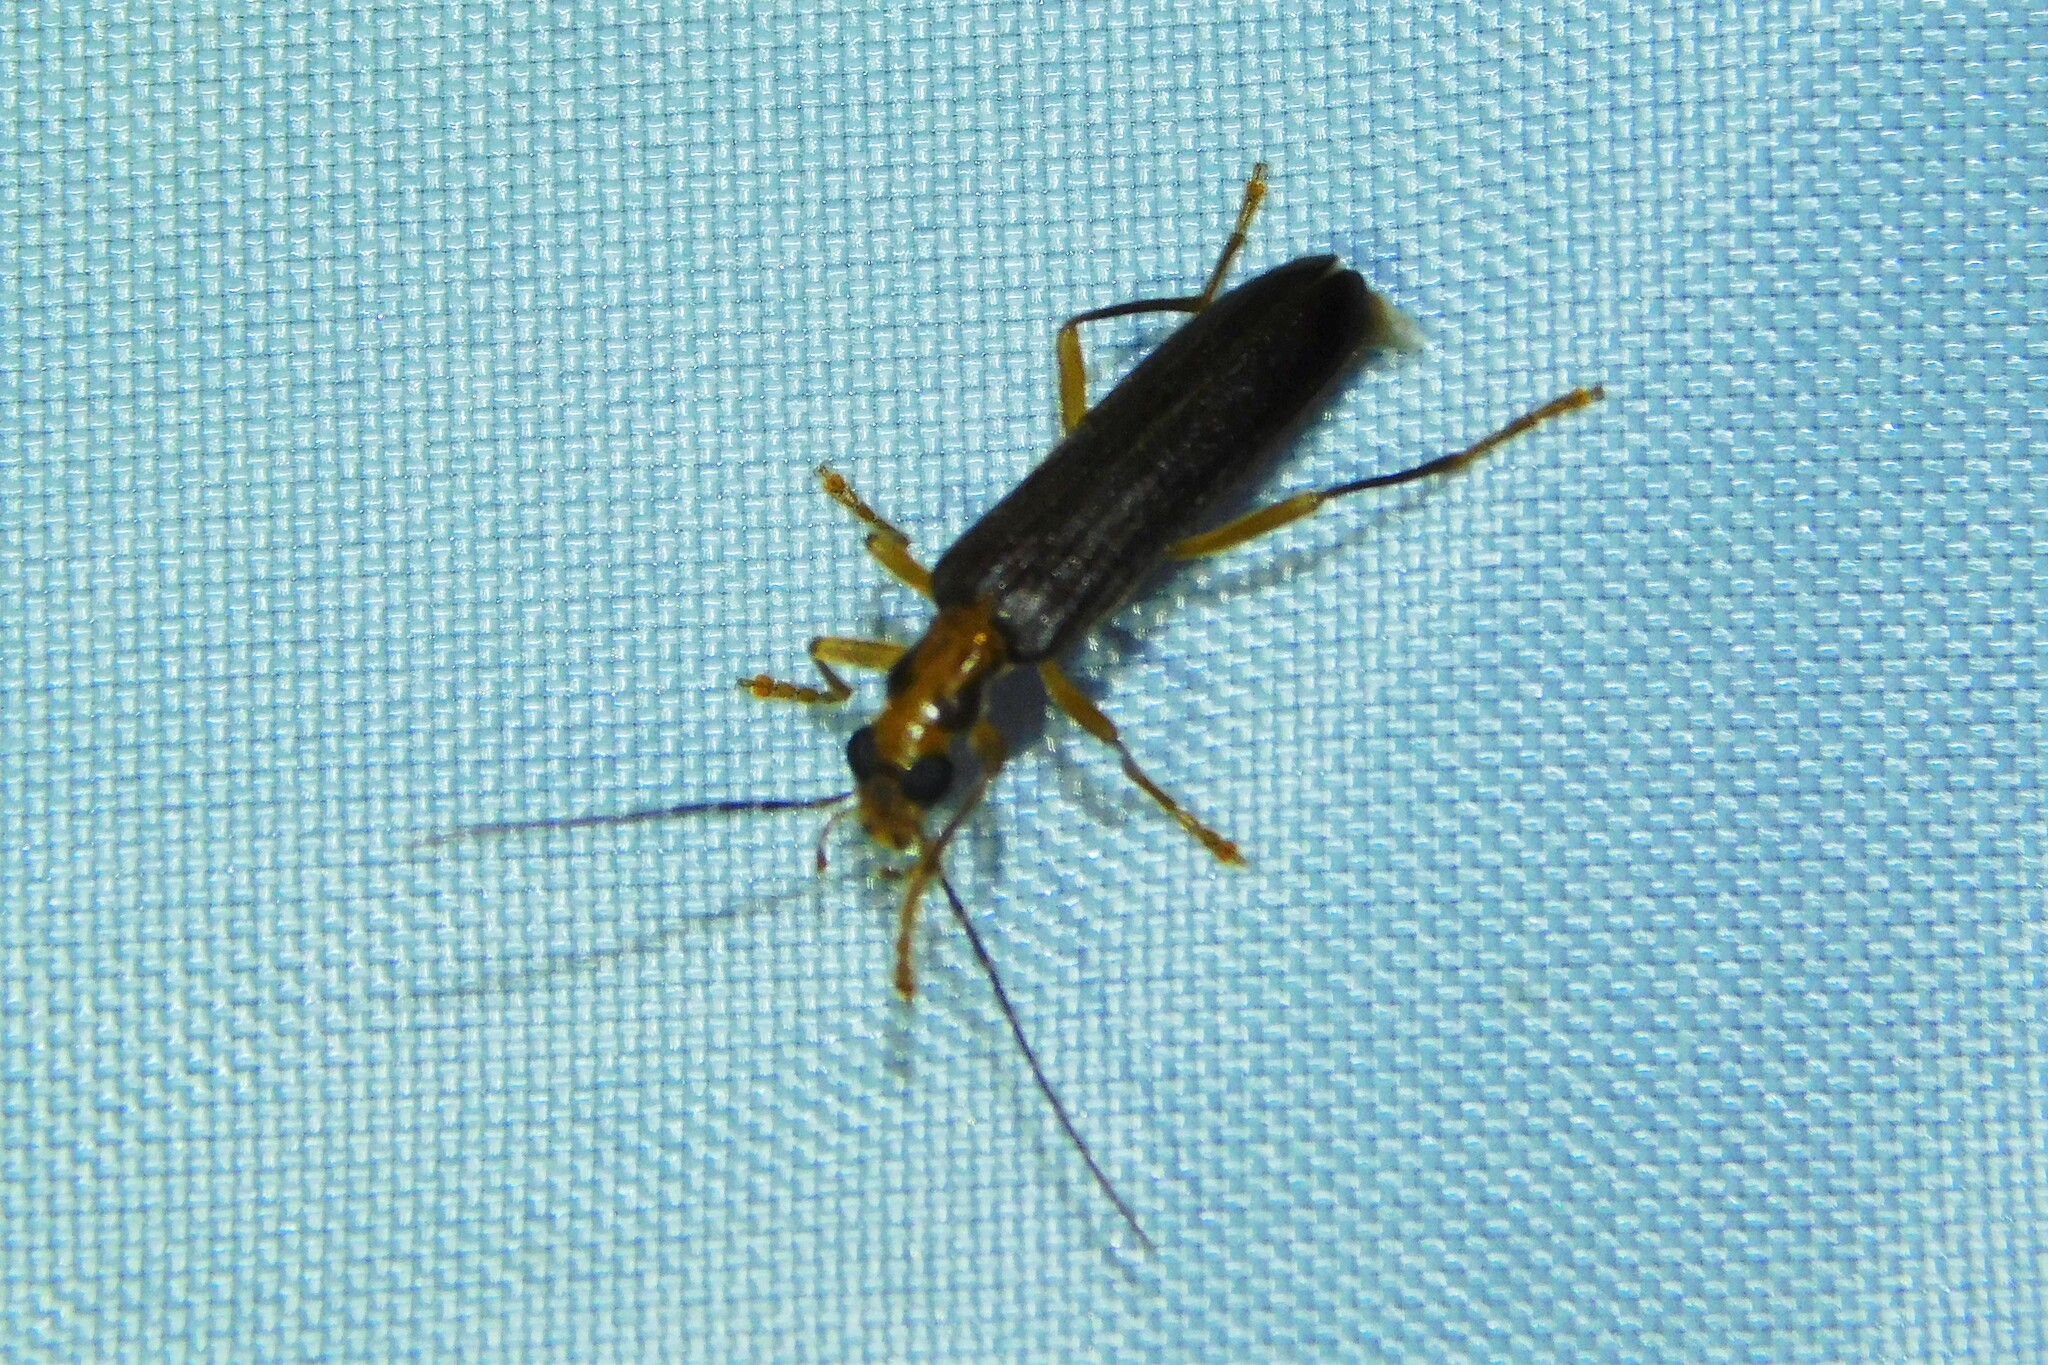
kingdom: Animalia
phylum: Arthropoda
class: Insecta
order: Coleoptera
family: Oedemeridae
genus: Nacerdes
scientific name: Nacerdes carniolica
